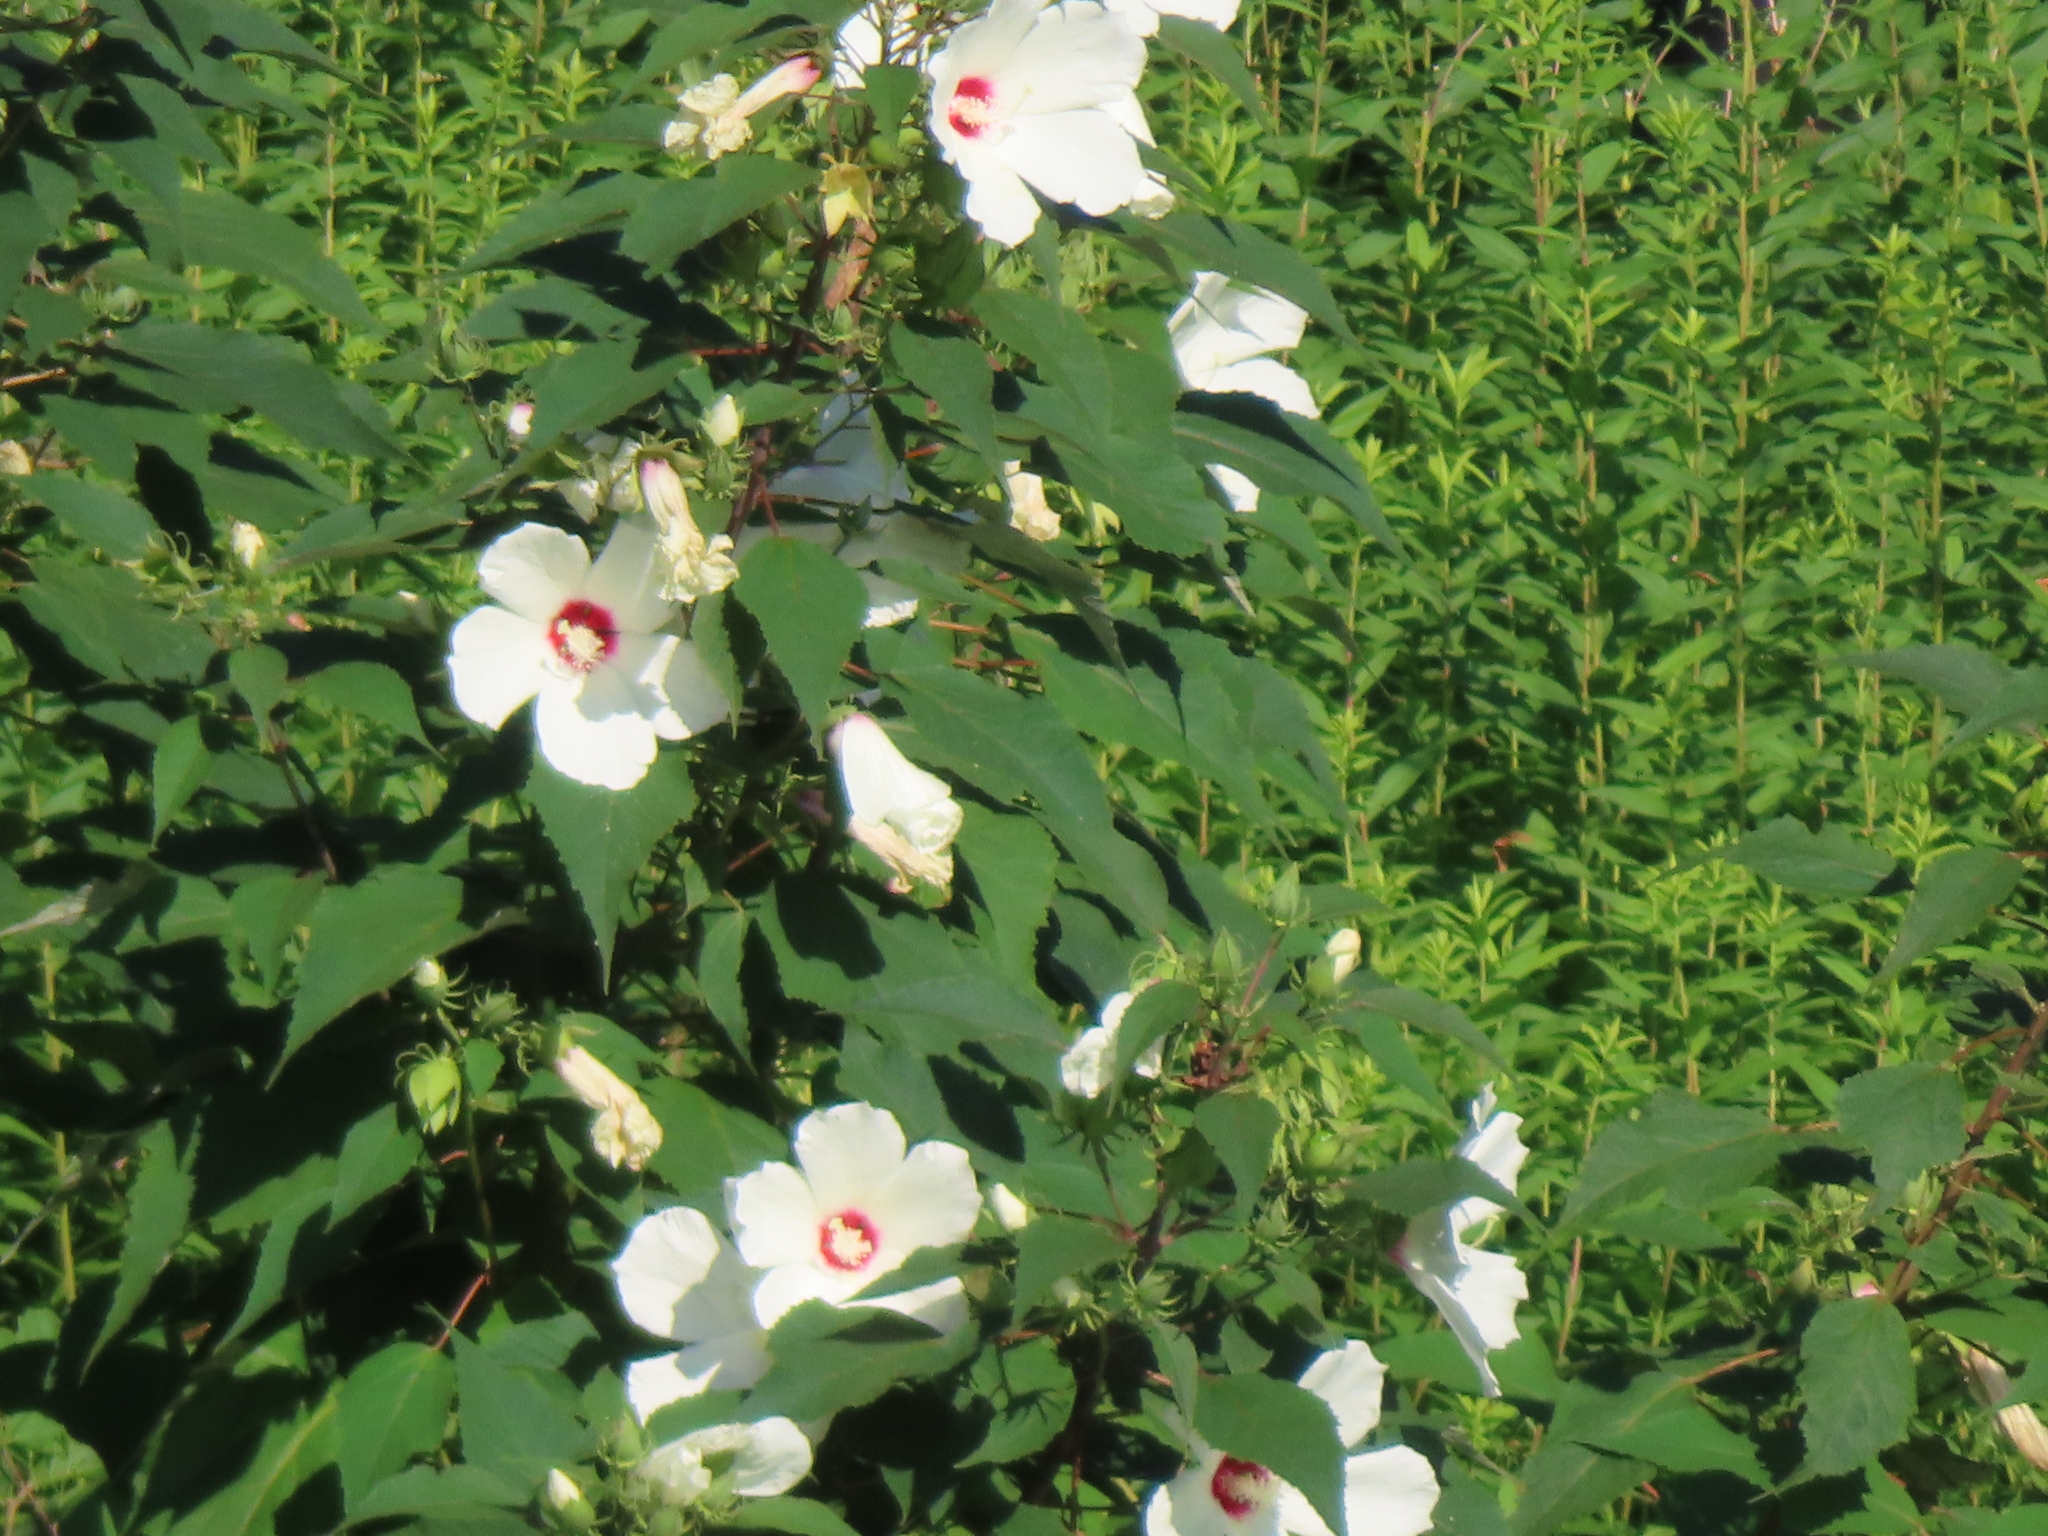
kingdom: Plantae
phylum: Tracheophyta
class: Magnoliopsida
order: Malvales
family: Malvaceae
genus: Hibiscus
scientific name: Hibiscus moscheutos
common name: Common rose-mallow
